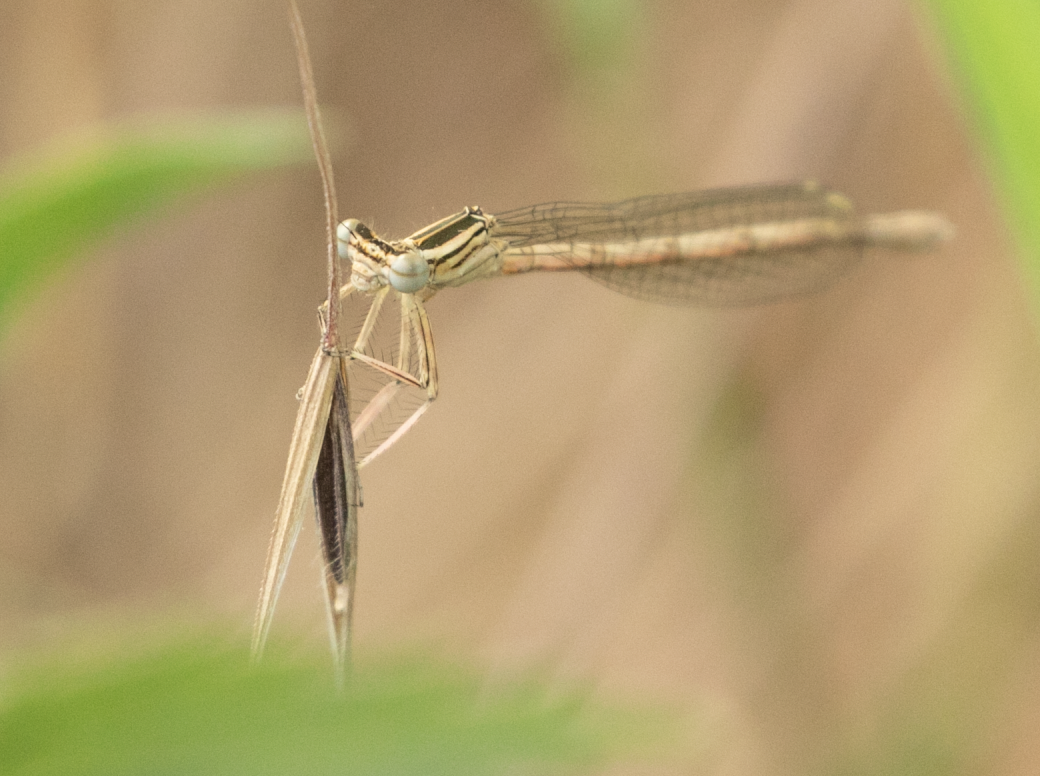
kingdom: Animalia
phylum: Arthropoda
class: Insecta
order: Odonata
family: Platycnemididae
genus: Platycnemis
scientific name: Platycnemis pennipes
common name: White-legged damselfly
